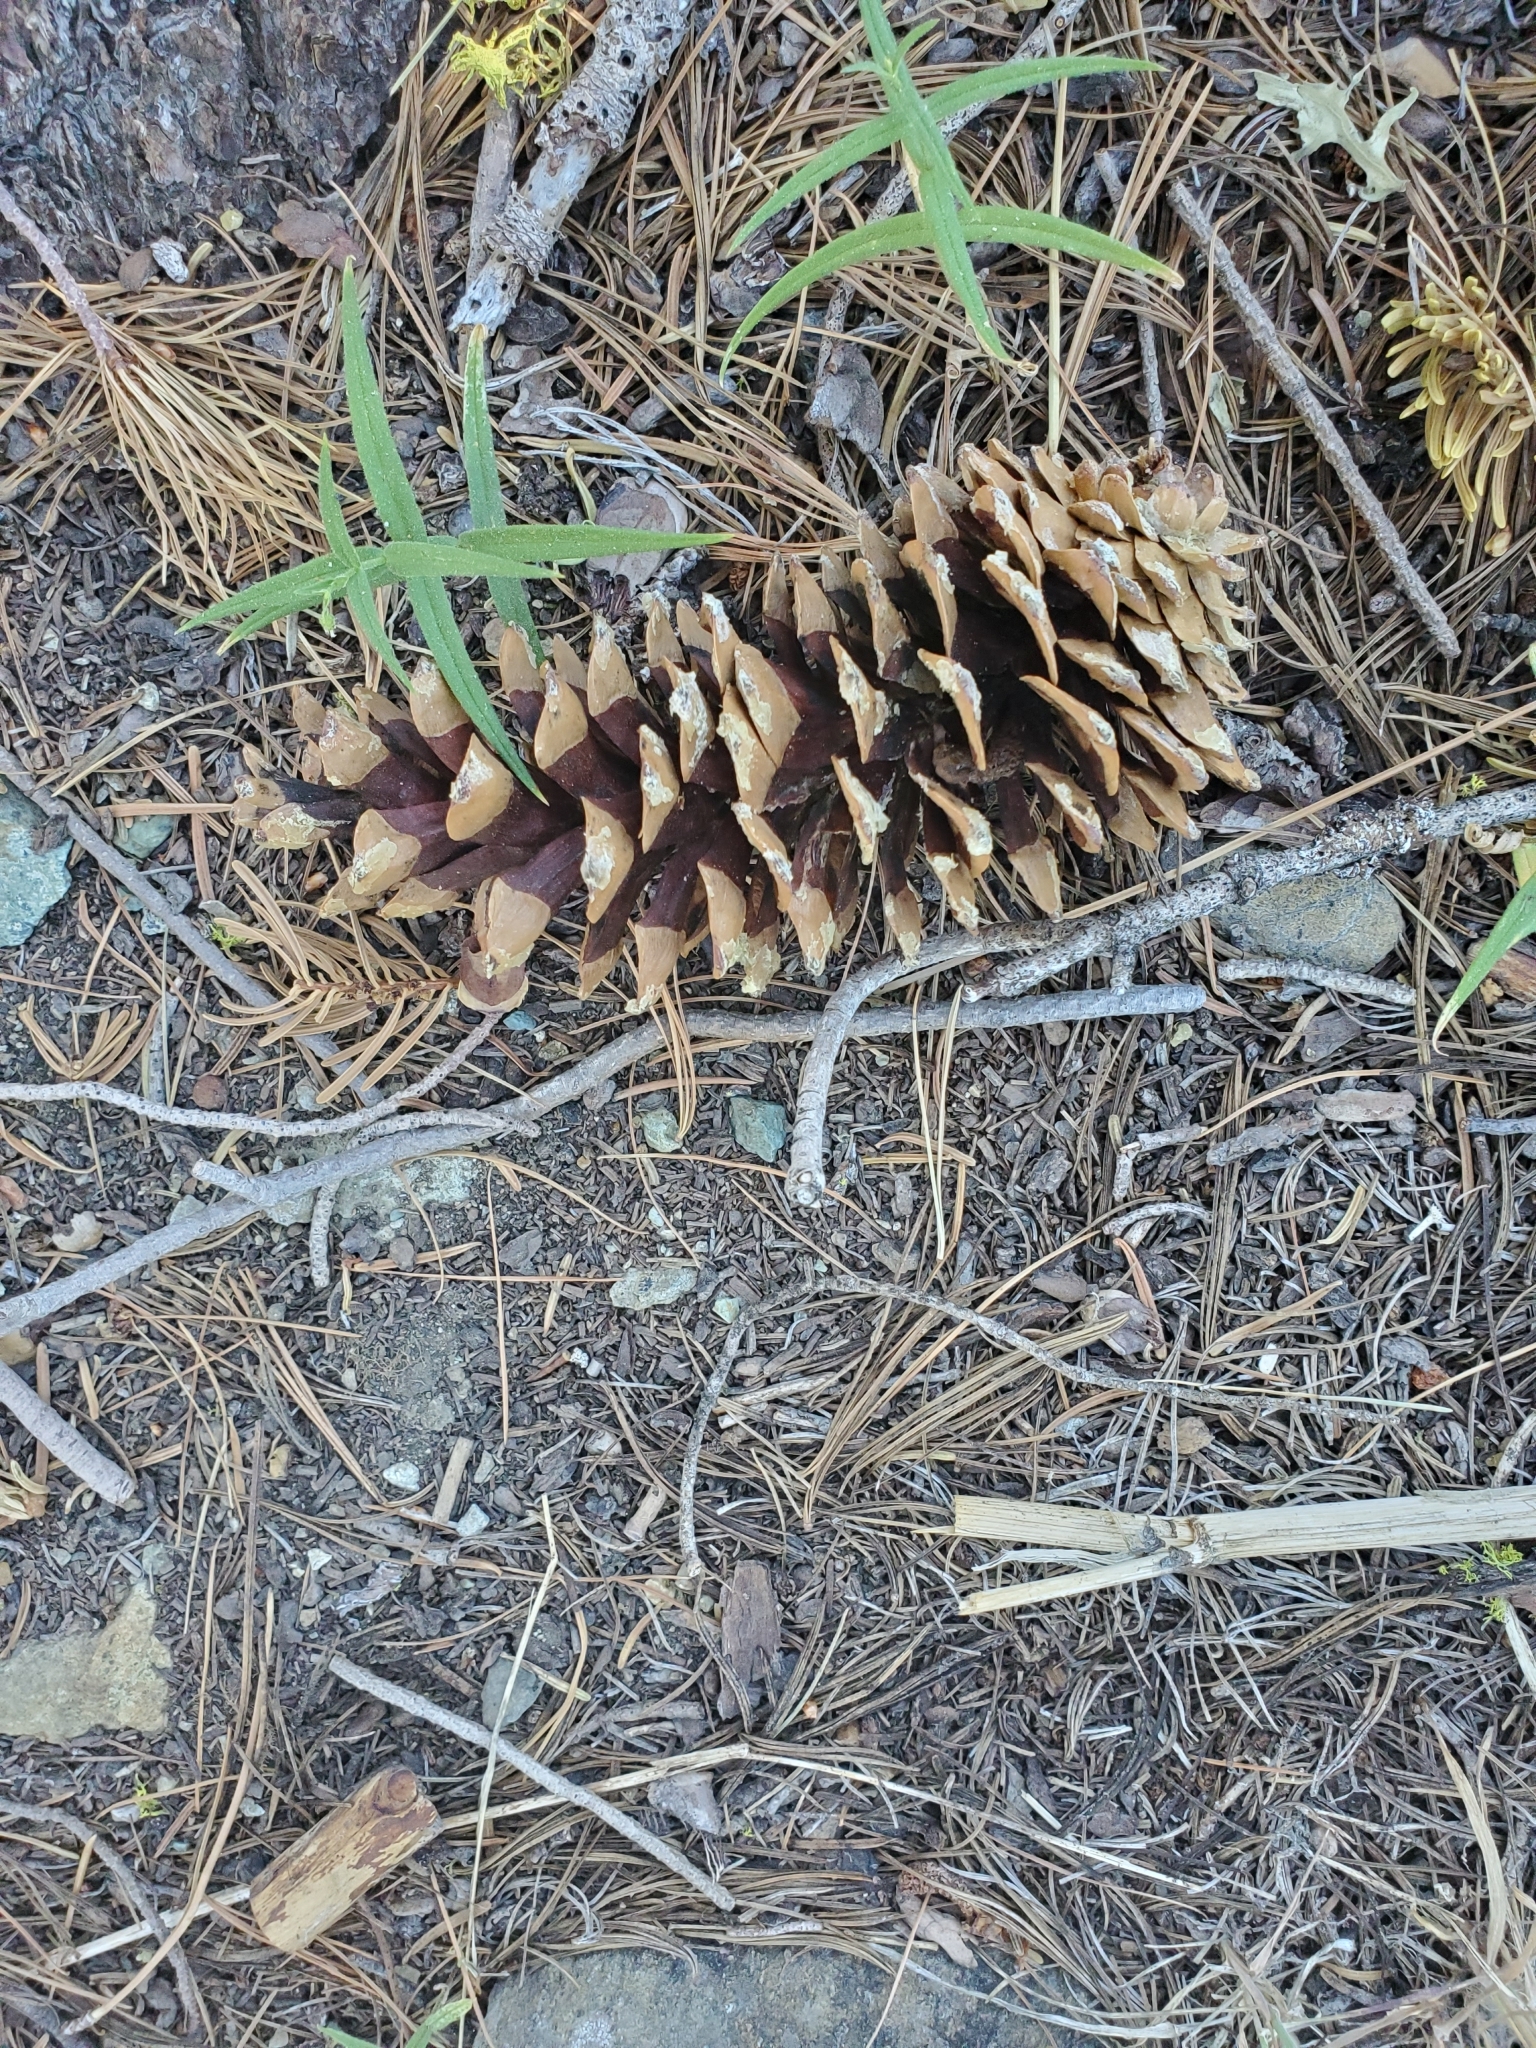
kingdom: Plantae
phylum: Tracheophyta
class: Pinopsida
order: Pinales
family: Pinaceae
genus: Pinus
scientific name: Pinus monticola
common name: Western white pine
